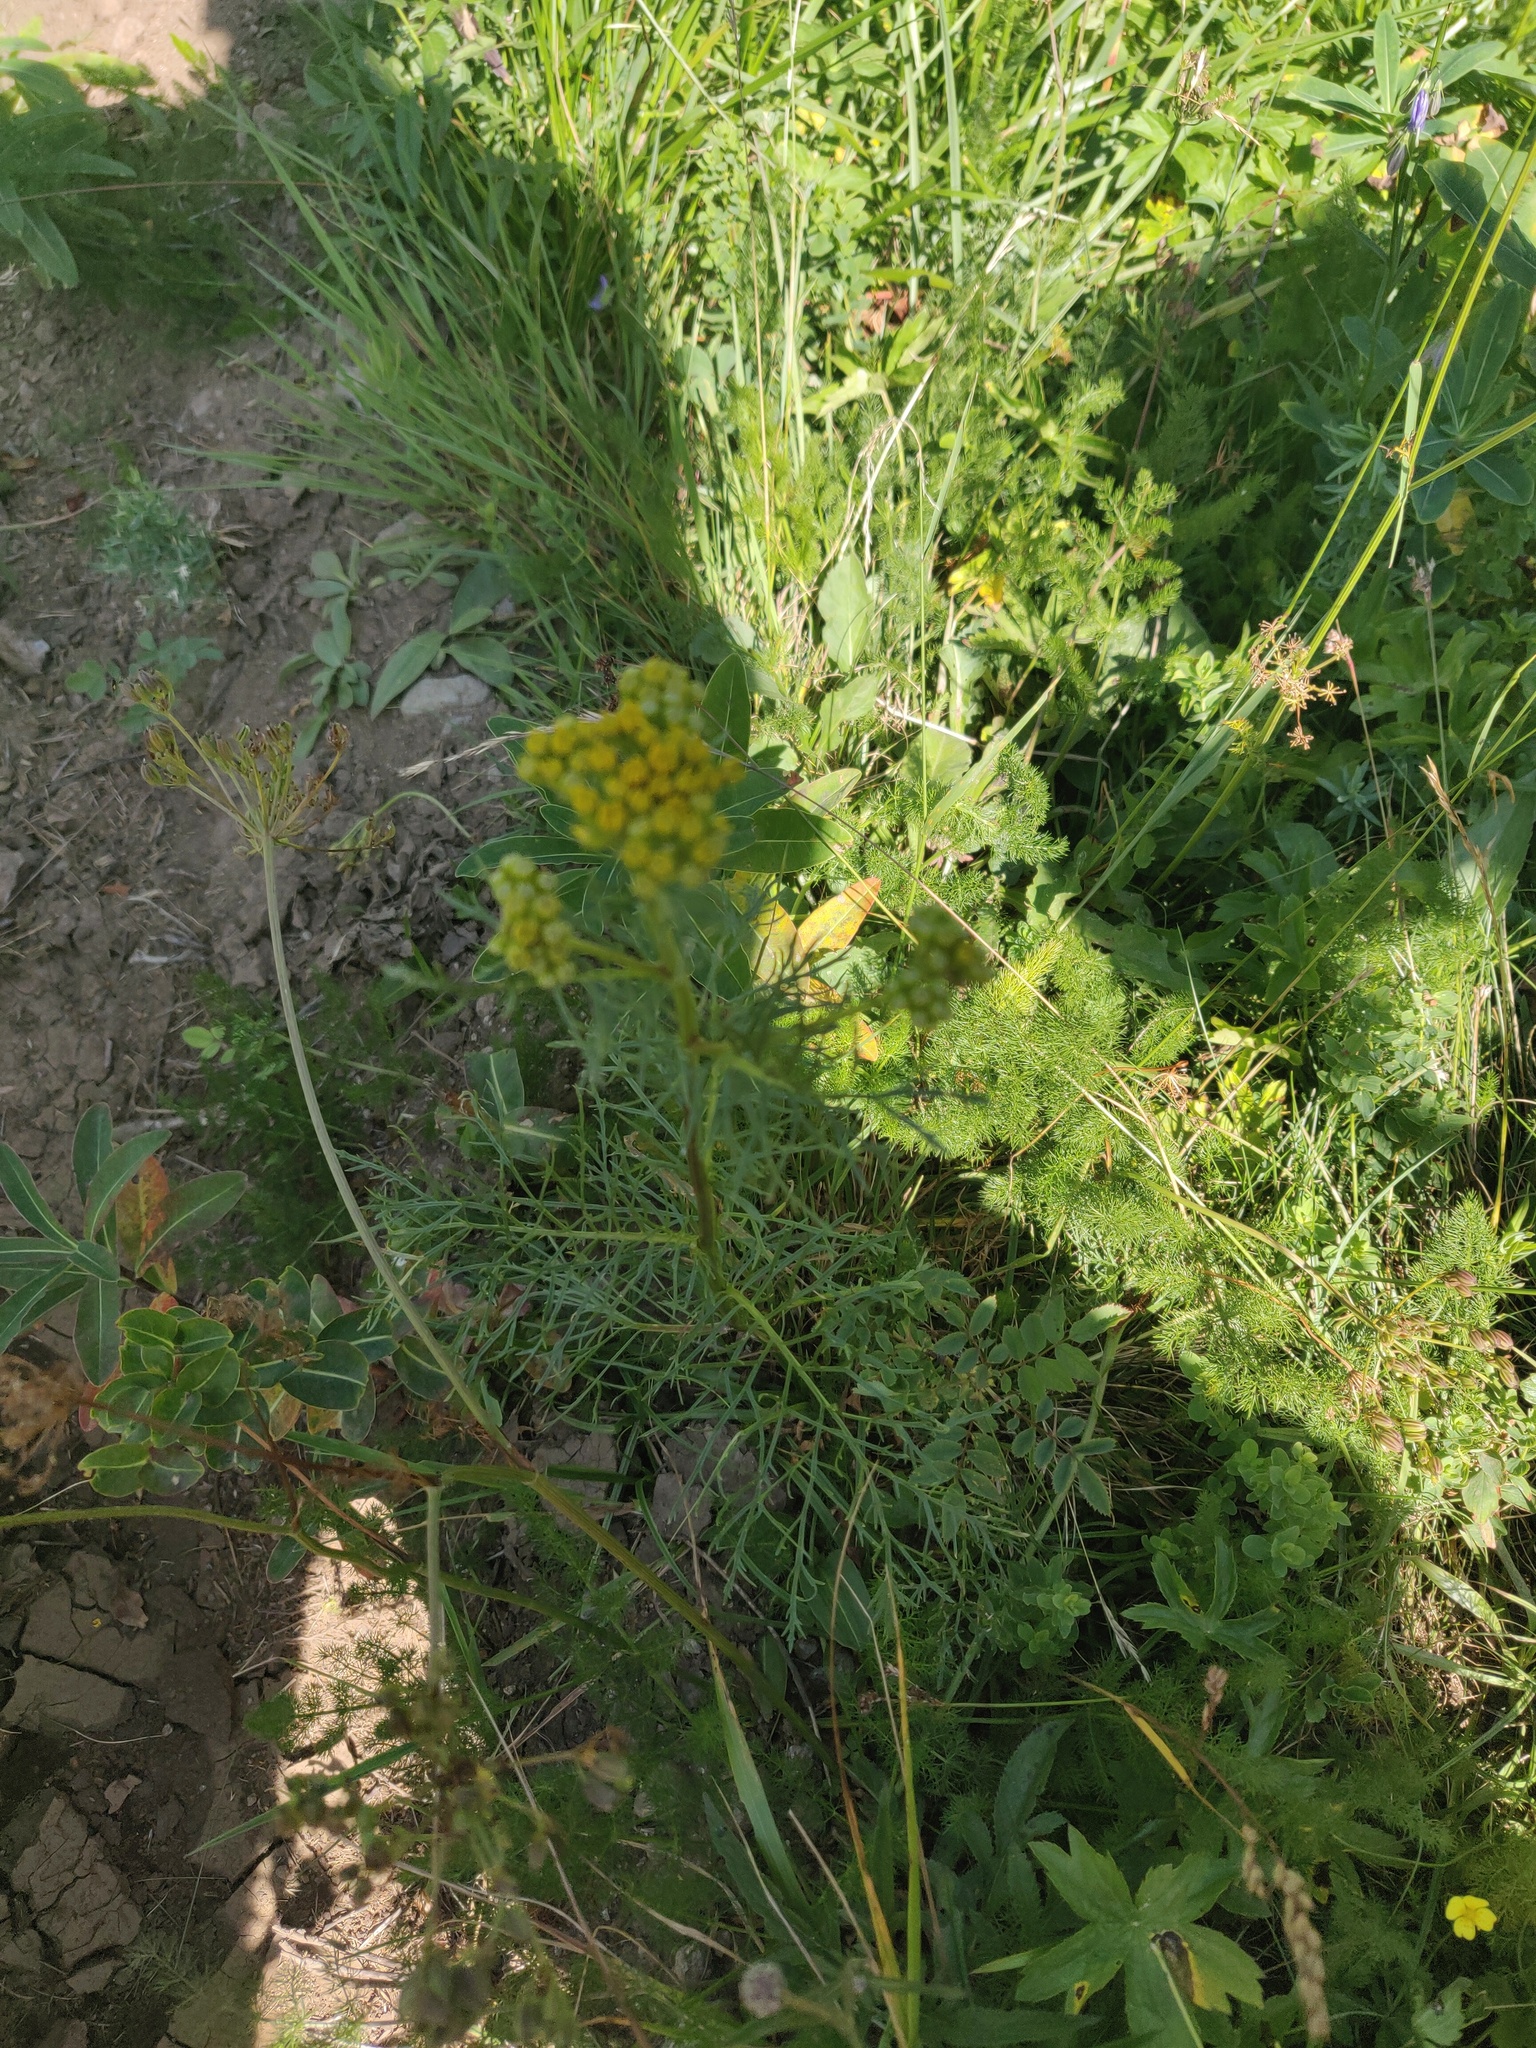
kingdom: Plantae
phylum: Tracheophyta
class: Magnoliopsida
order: Asterales
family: Asteraceae
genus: Jacobaea
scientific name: Jacobaea adonidifolia
